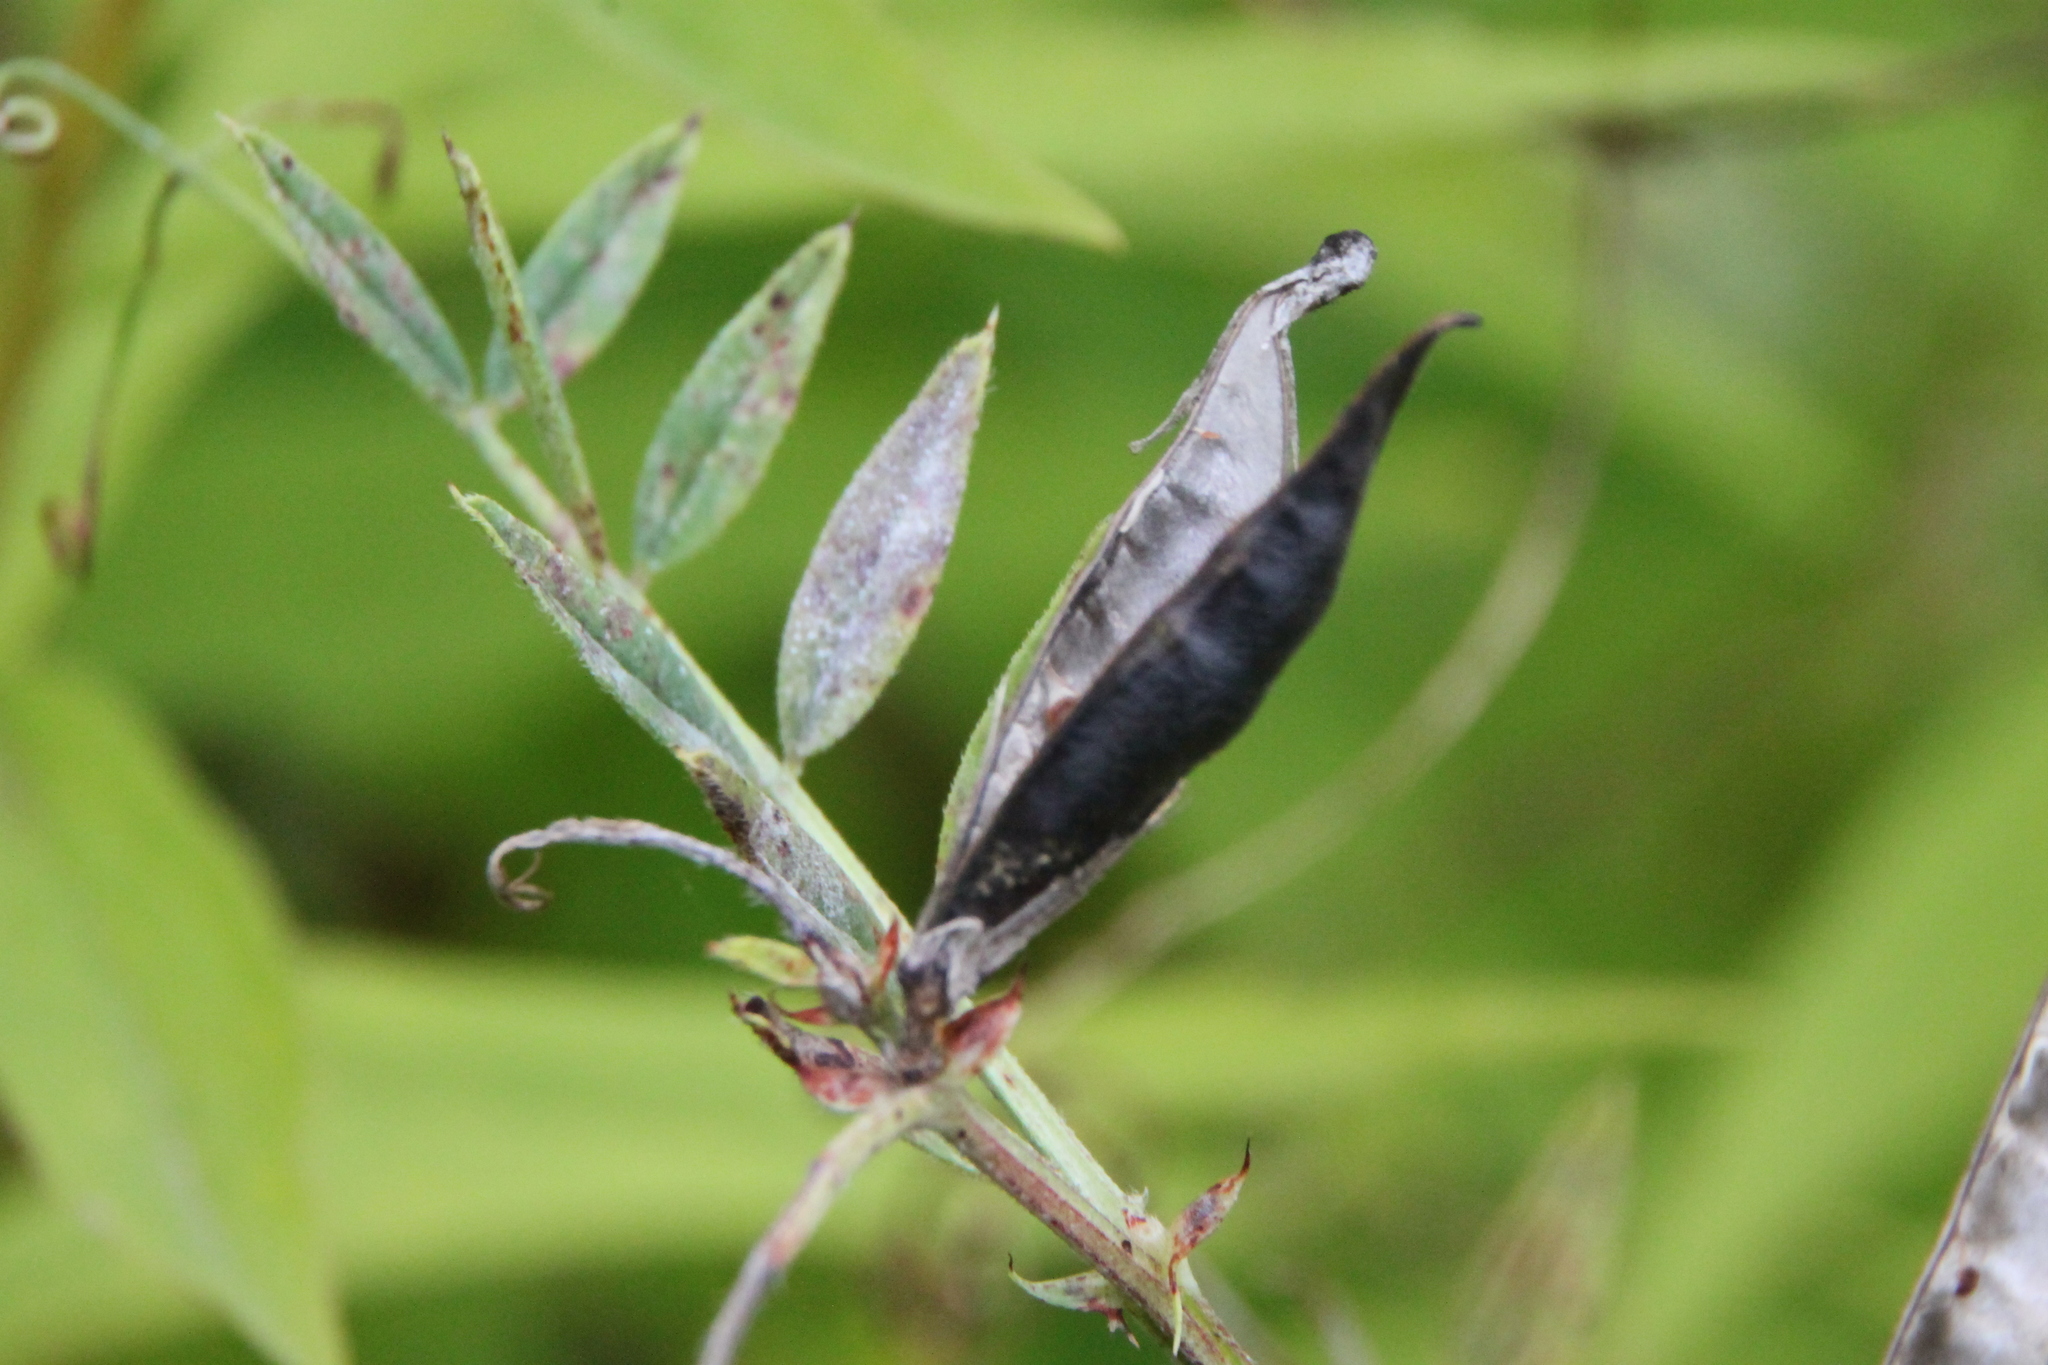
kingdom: Plantae
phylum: Tracheophyta
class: Magnoliopsida
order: Fabales
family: Fabaceae
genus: Vicia
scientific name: Vicia hirsuta
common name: Tiny vetch
